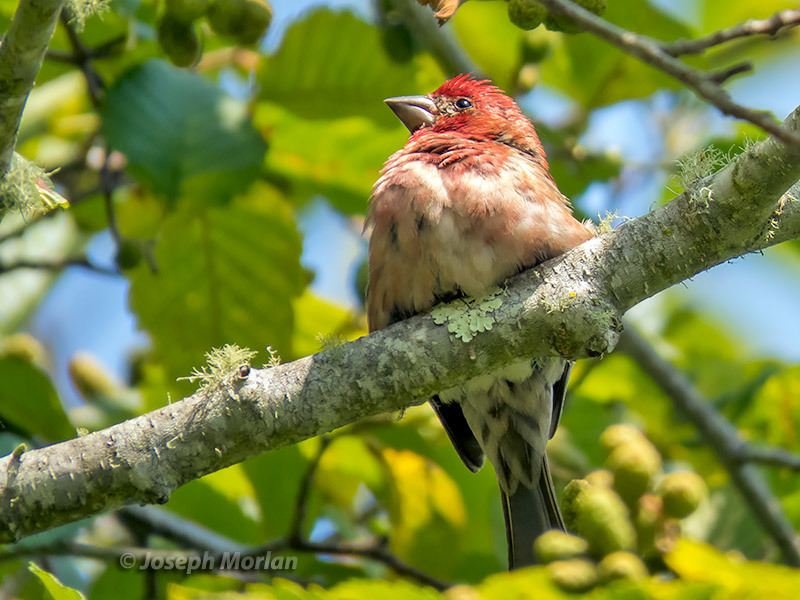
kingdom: Animalia
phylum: Chordata
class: Aves
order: Passeriformes
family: Fringillidae
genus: Haemorhous
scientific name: Haemorhous purpureus
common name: Purple finch
